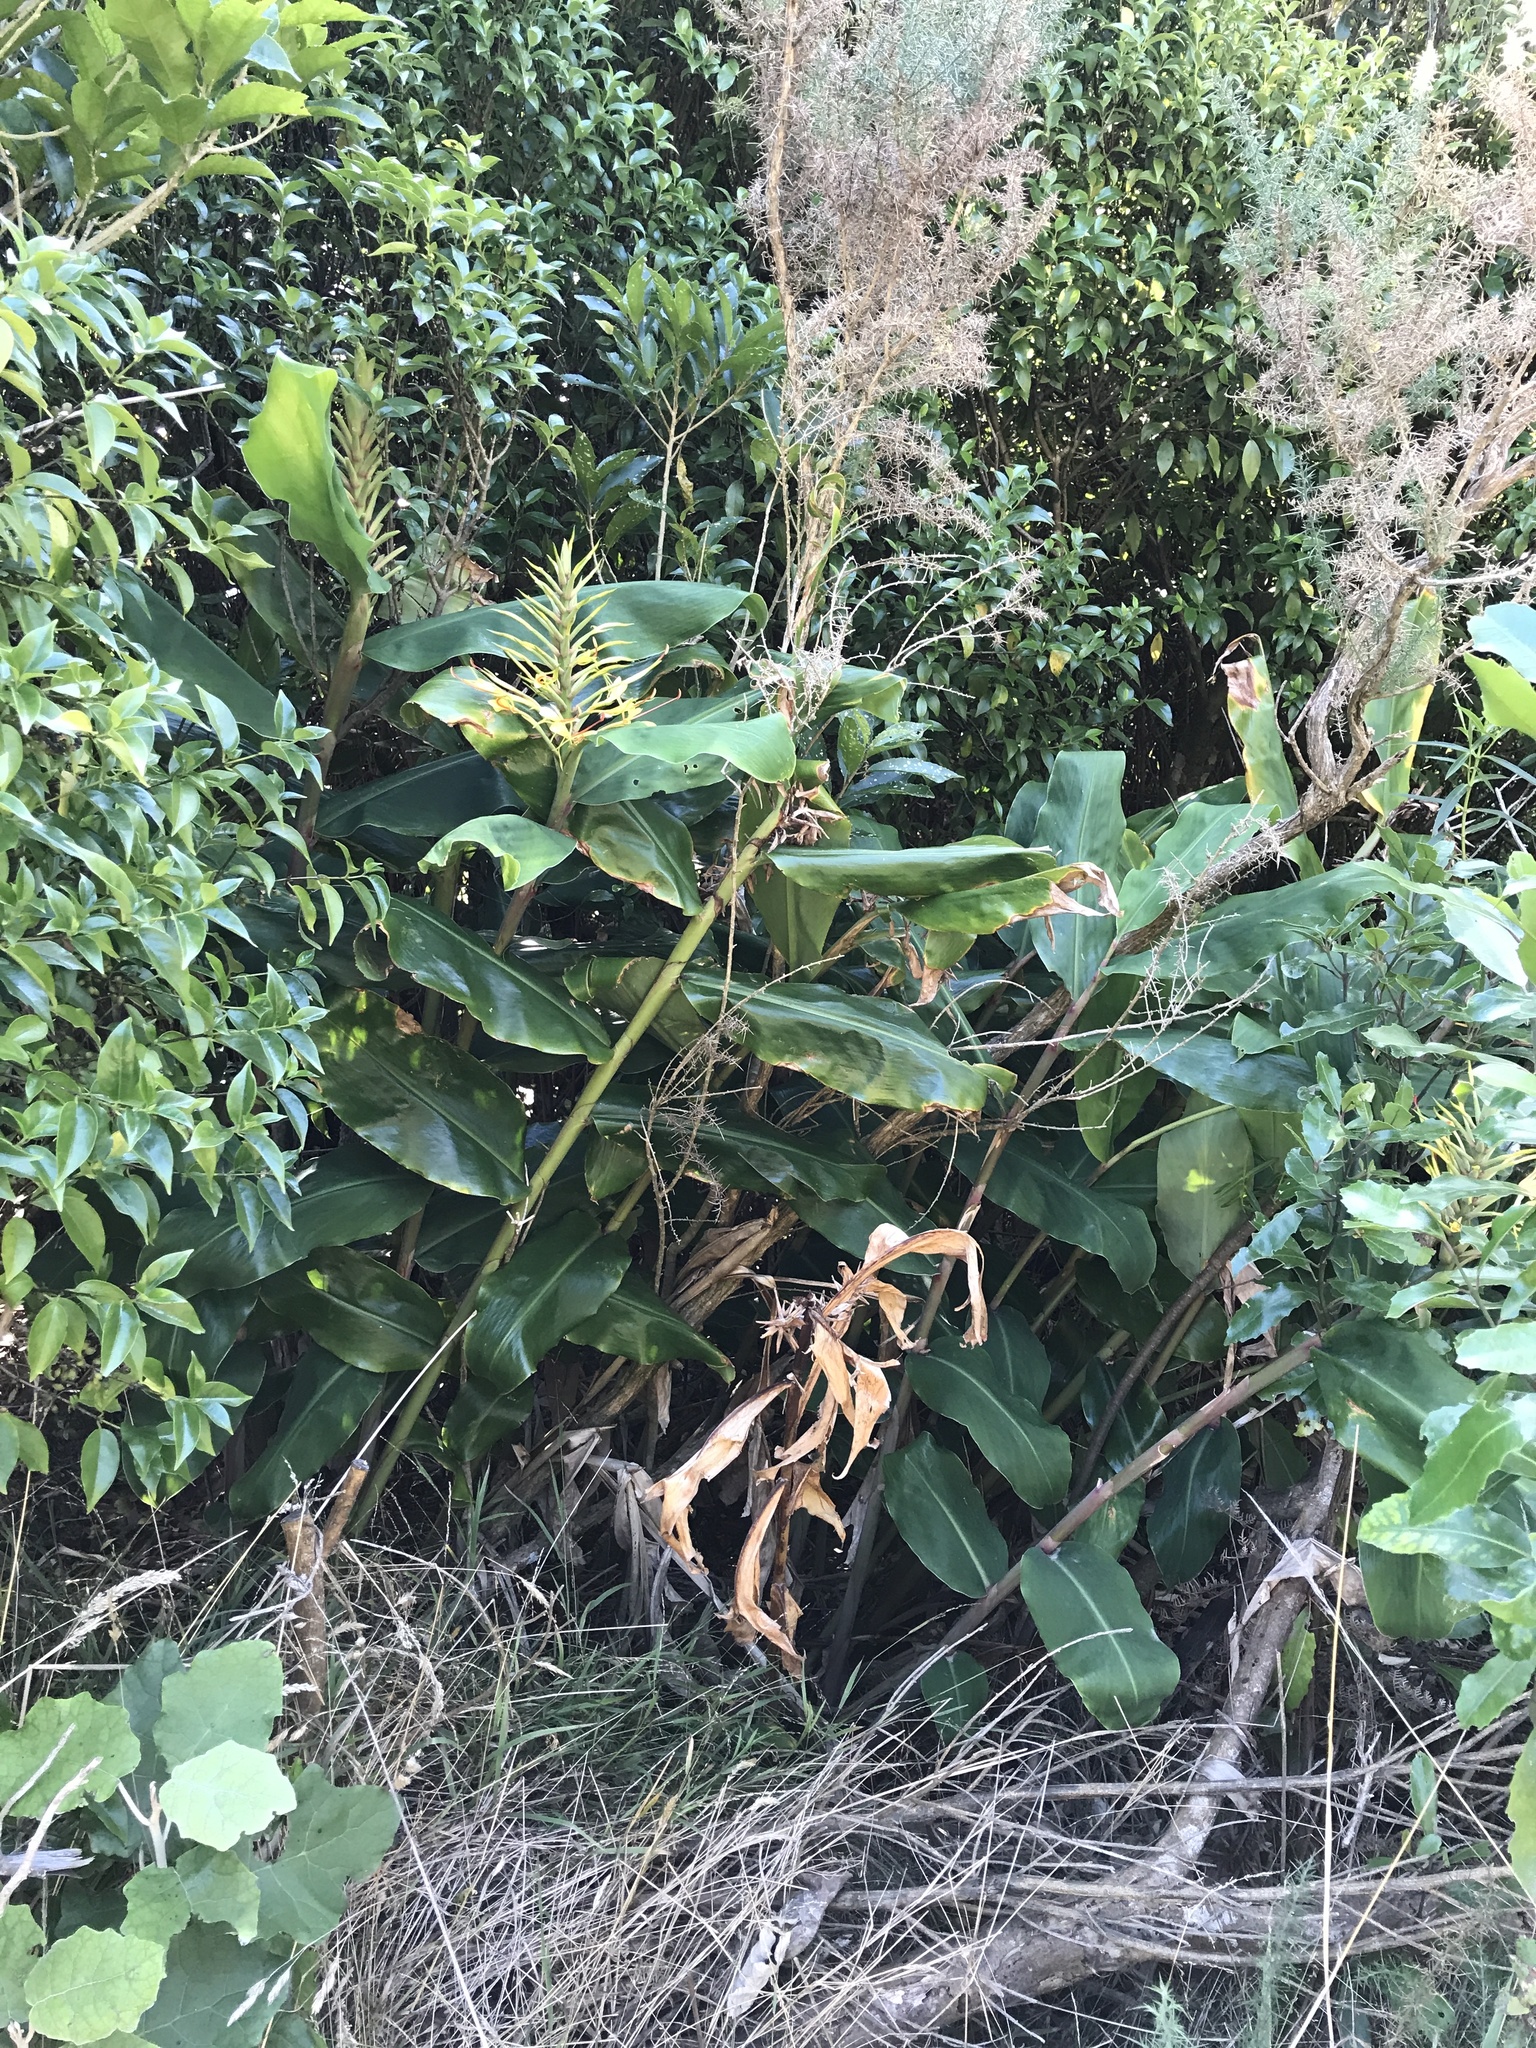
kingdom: Plantae
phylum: Tracheophyta
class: Liliopsida
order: Zingiberales
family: Zingiberaceae
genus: Hedychium
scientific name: Hedychium gardnerianum
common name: Himalayan ginger
